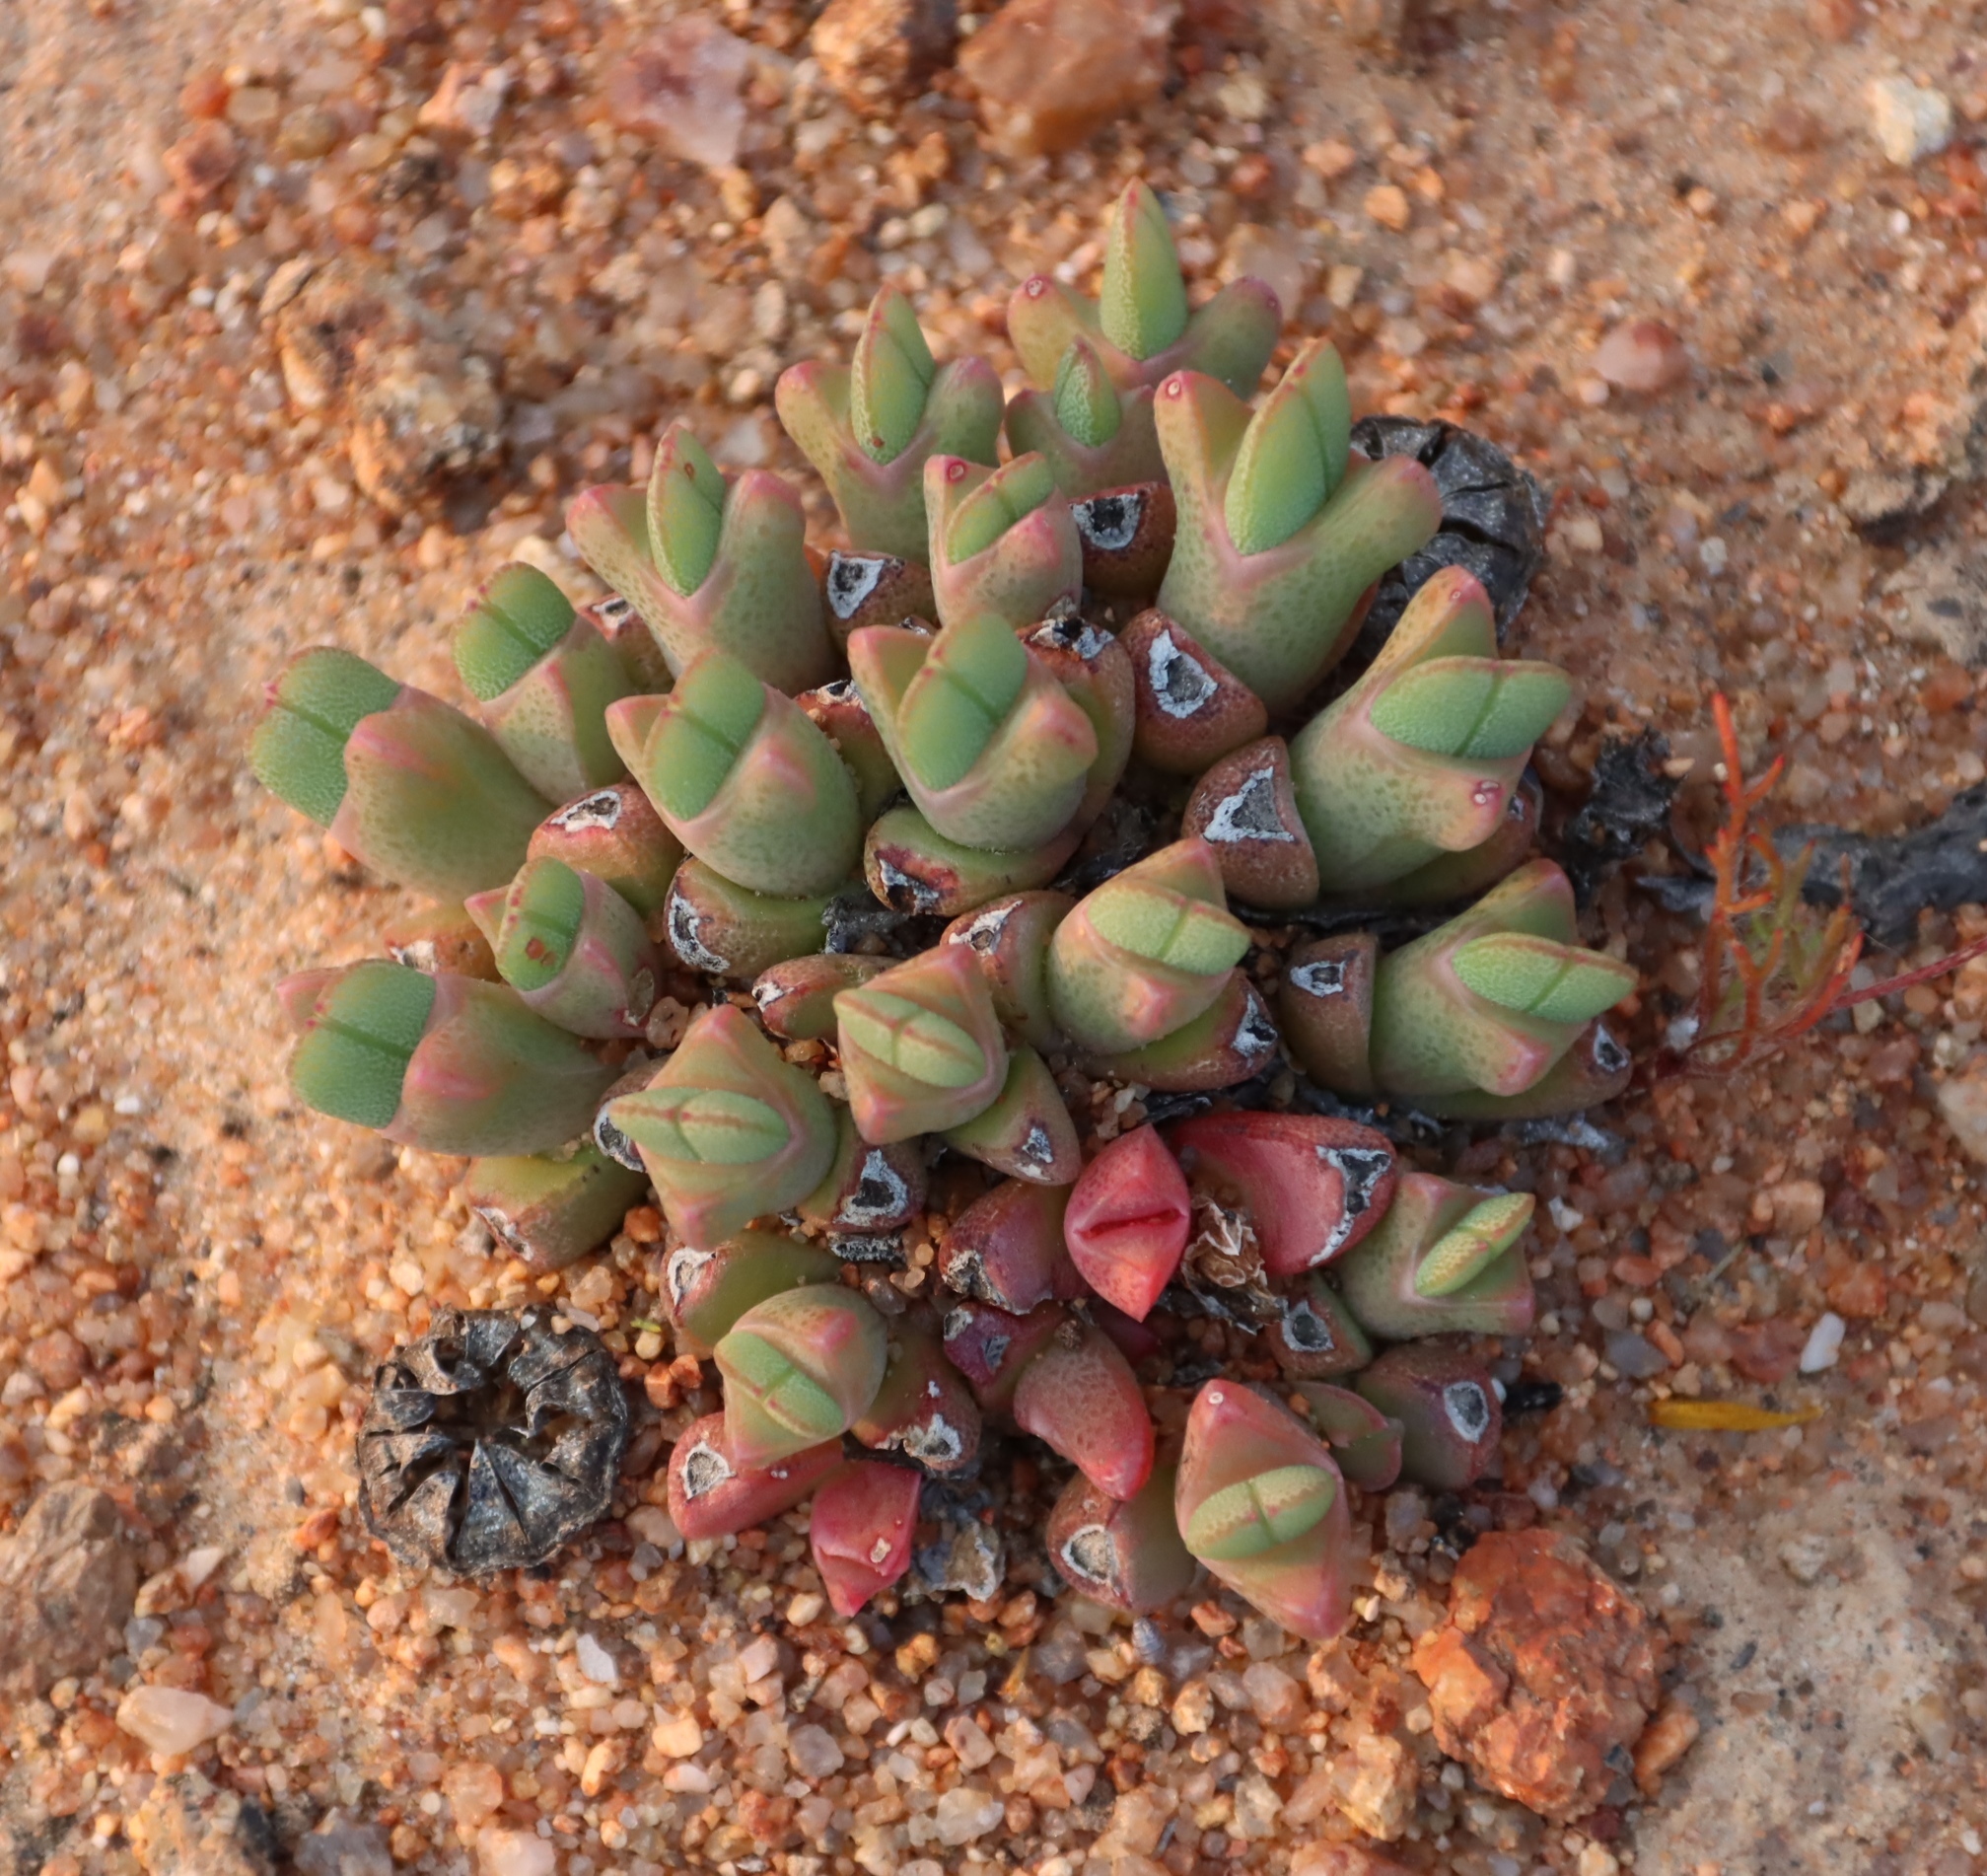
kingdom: Plantae
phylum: Tracheophyta
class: Magnoliopsida
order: Caryophyllales
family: Aizoaceae
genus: Cheiridopsis
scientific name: Cheiridopsis namaquensis
